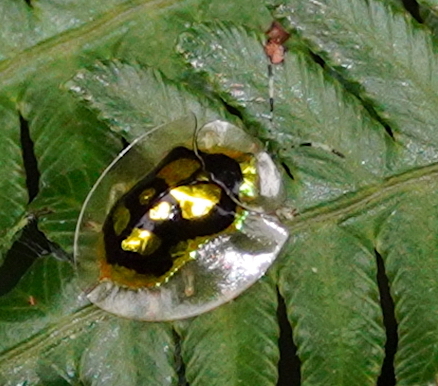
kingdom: Animalia
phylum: Arthropoda
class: Insecta
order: Coleoptera
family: Chrysomelidae
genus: Plagiometriona
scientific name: Plagiometriona boschmai
